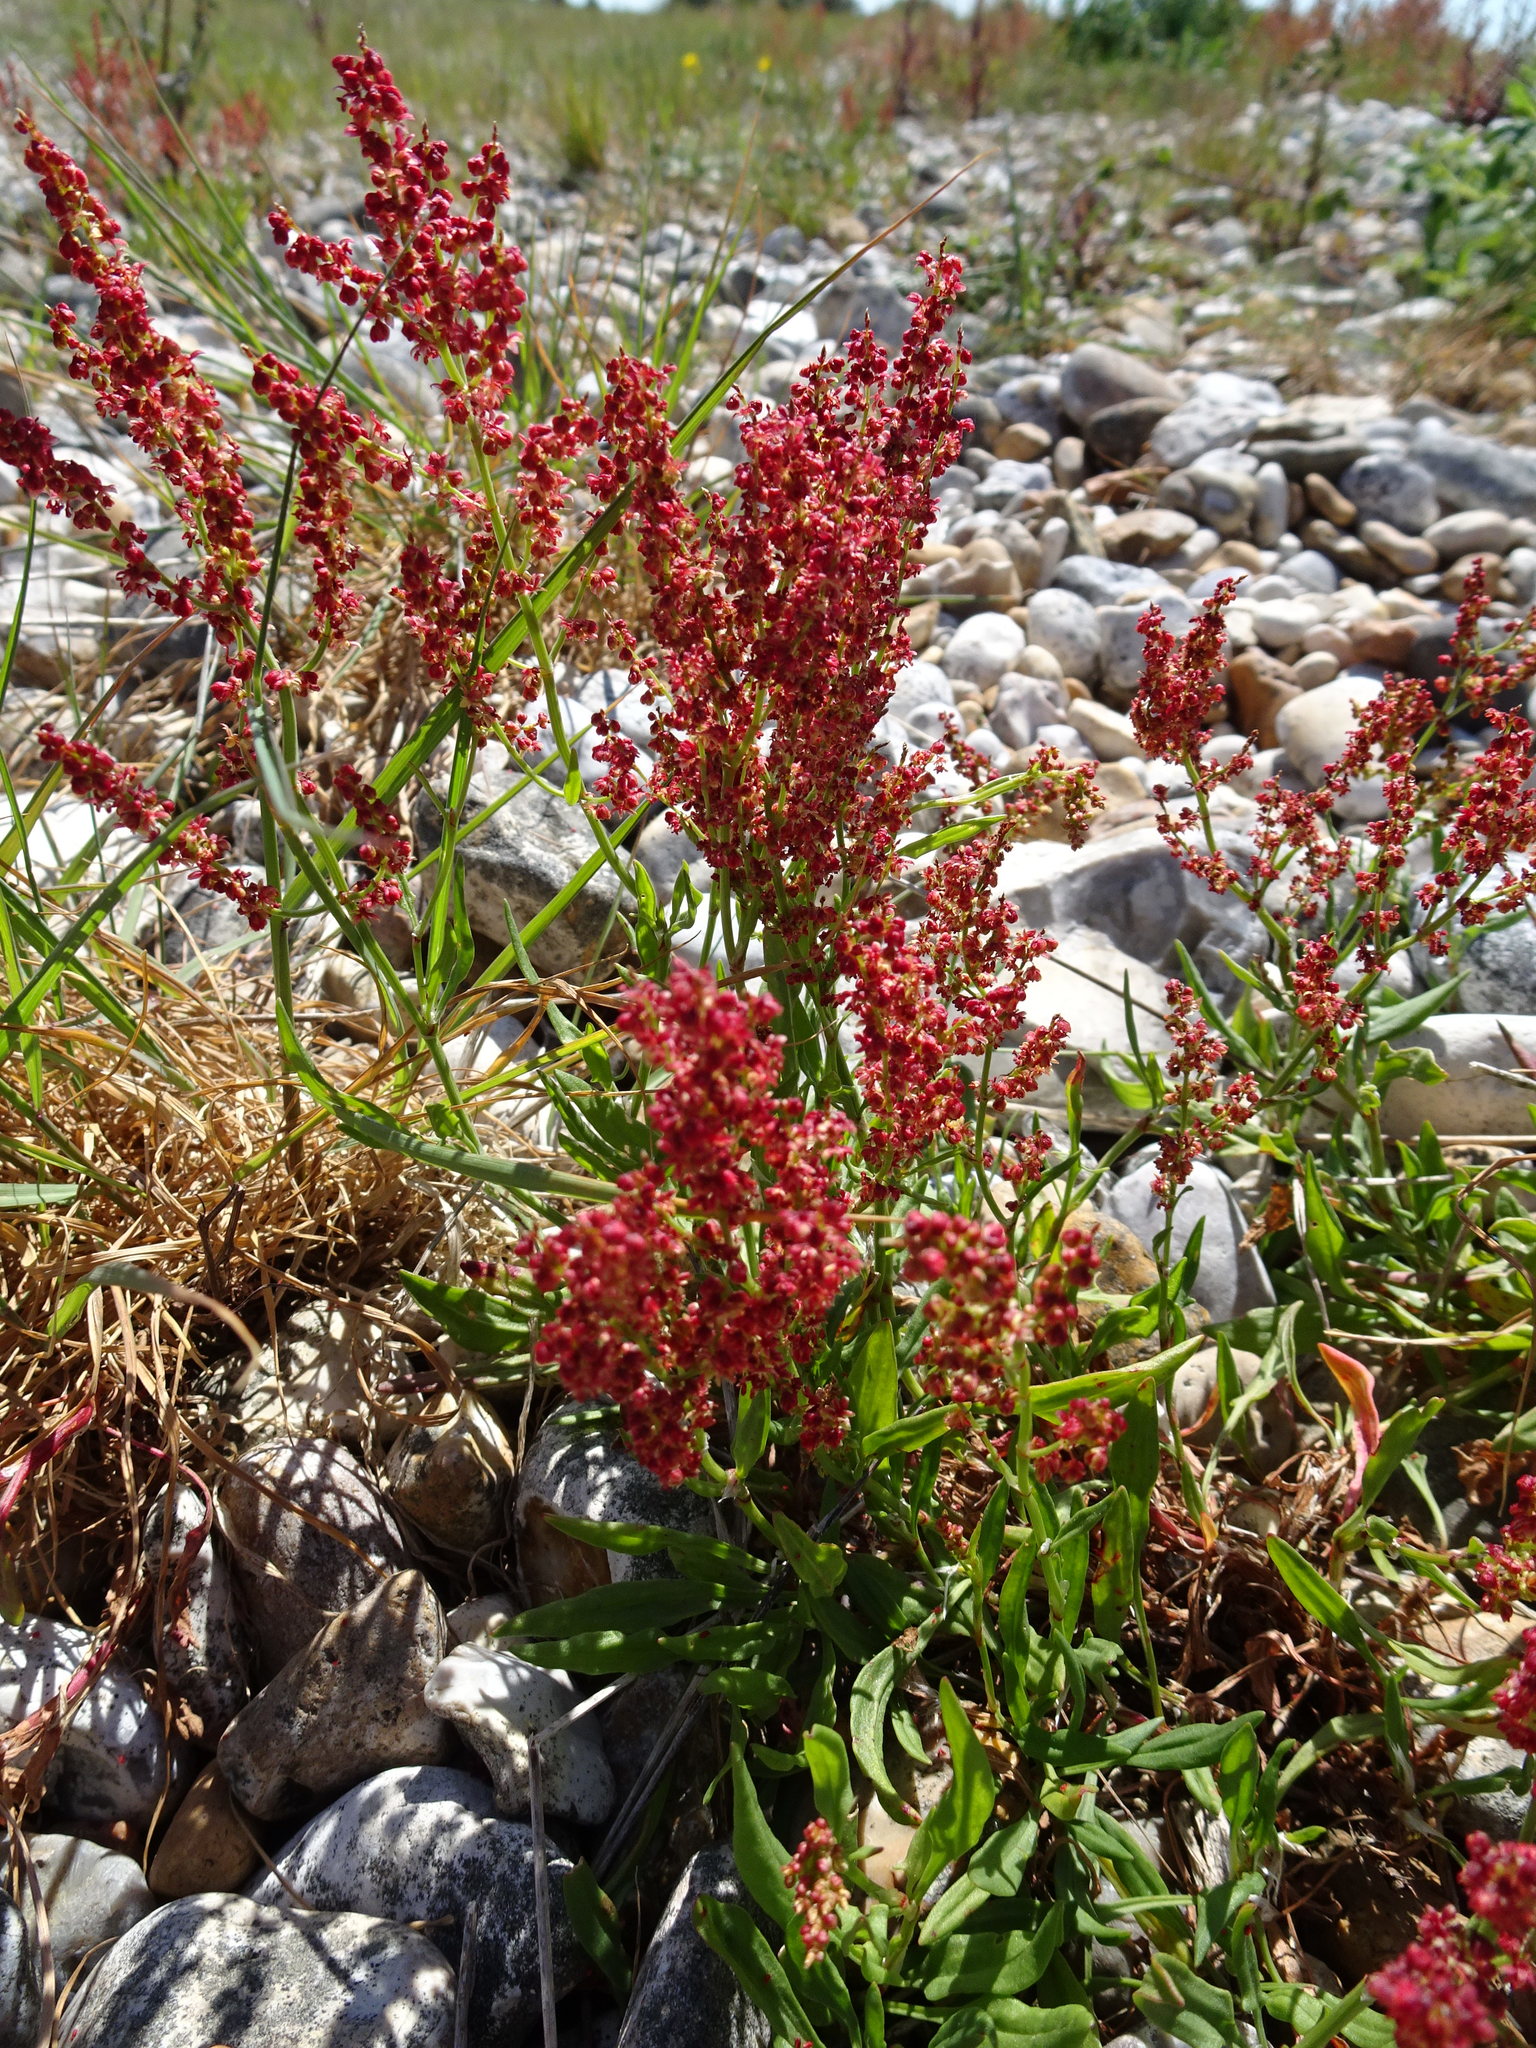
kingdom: Plantae
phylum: Tracheophyta
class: Magnoliopsida
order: Caryophyllales
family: Polygonaceae
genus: Rumex
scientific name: Rumex acetosella
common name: Common sheep sorrel
